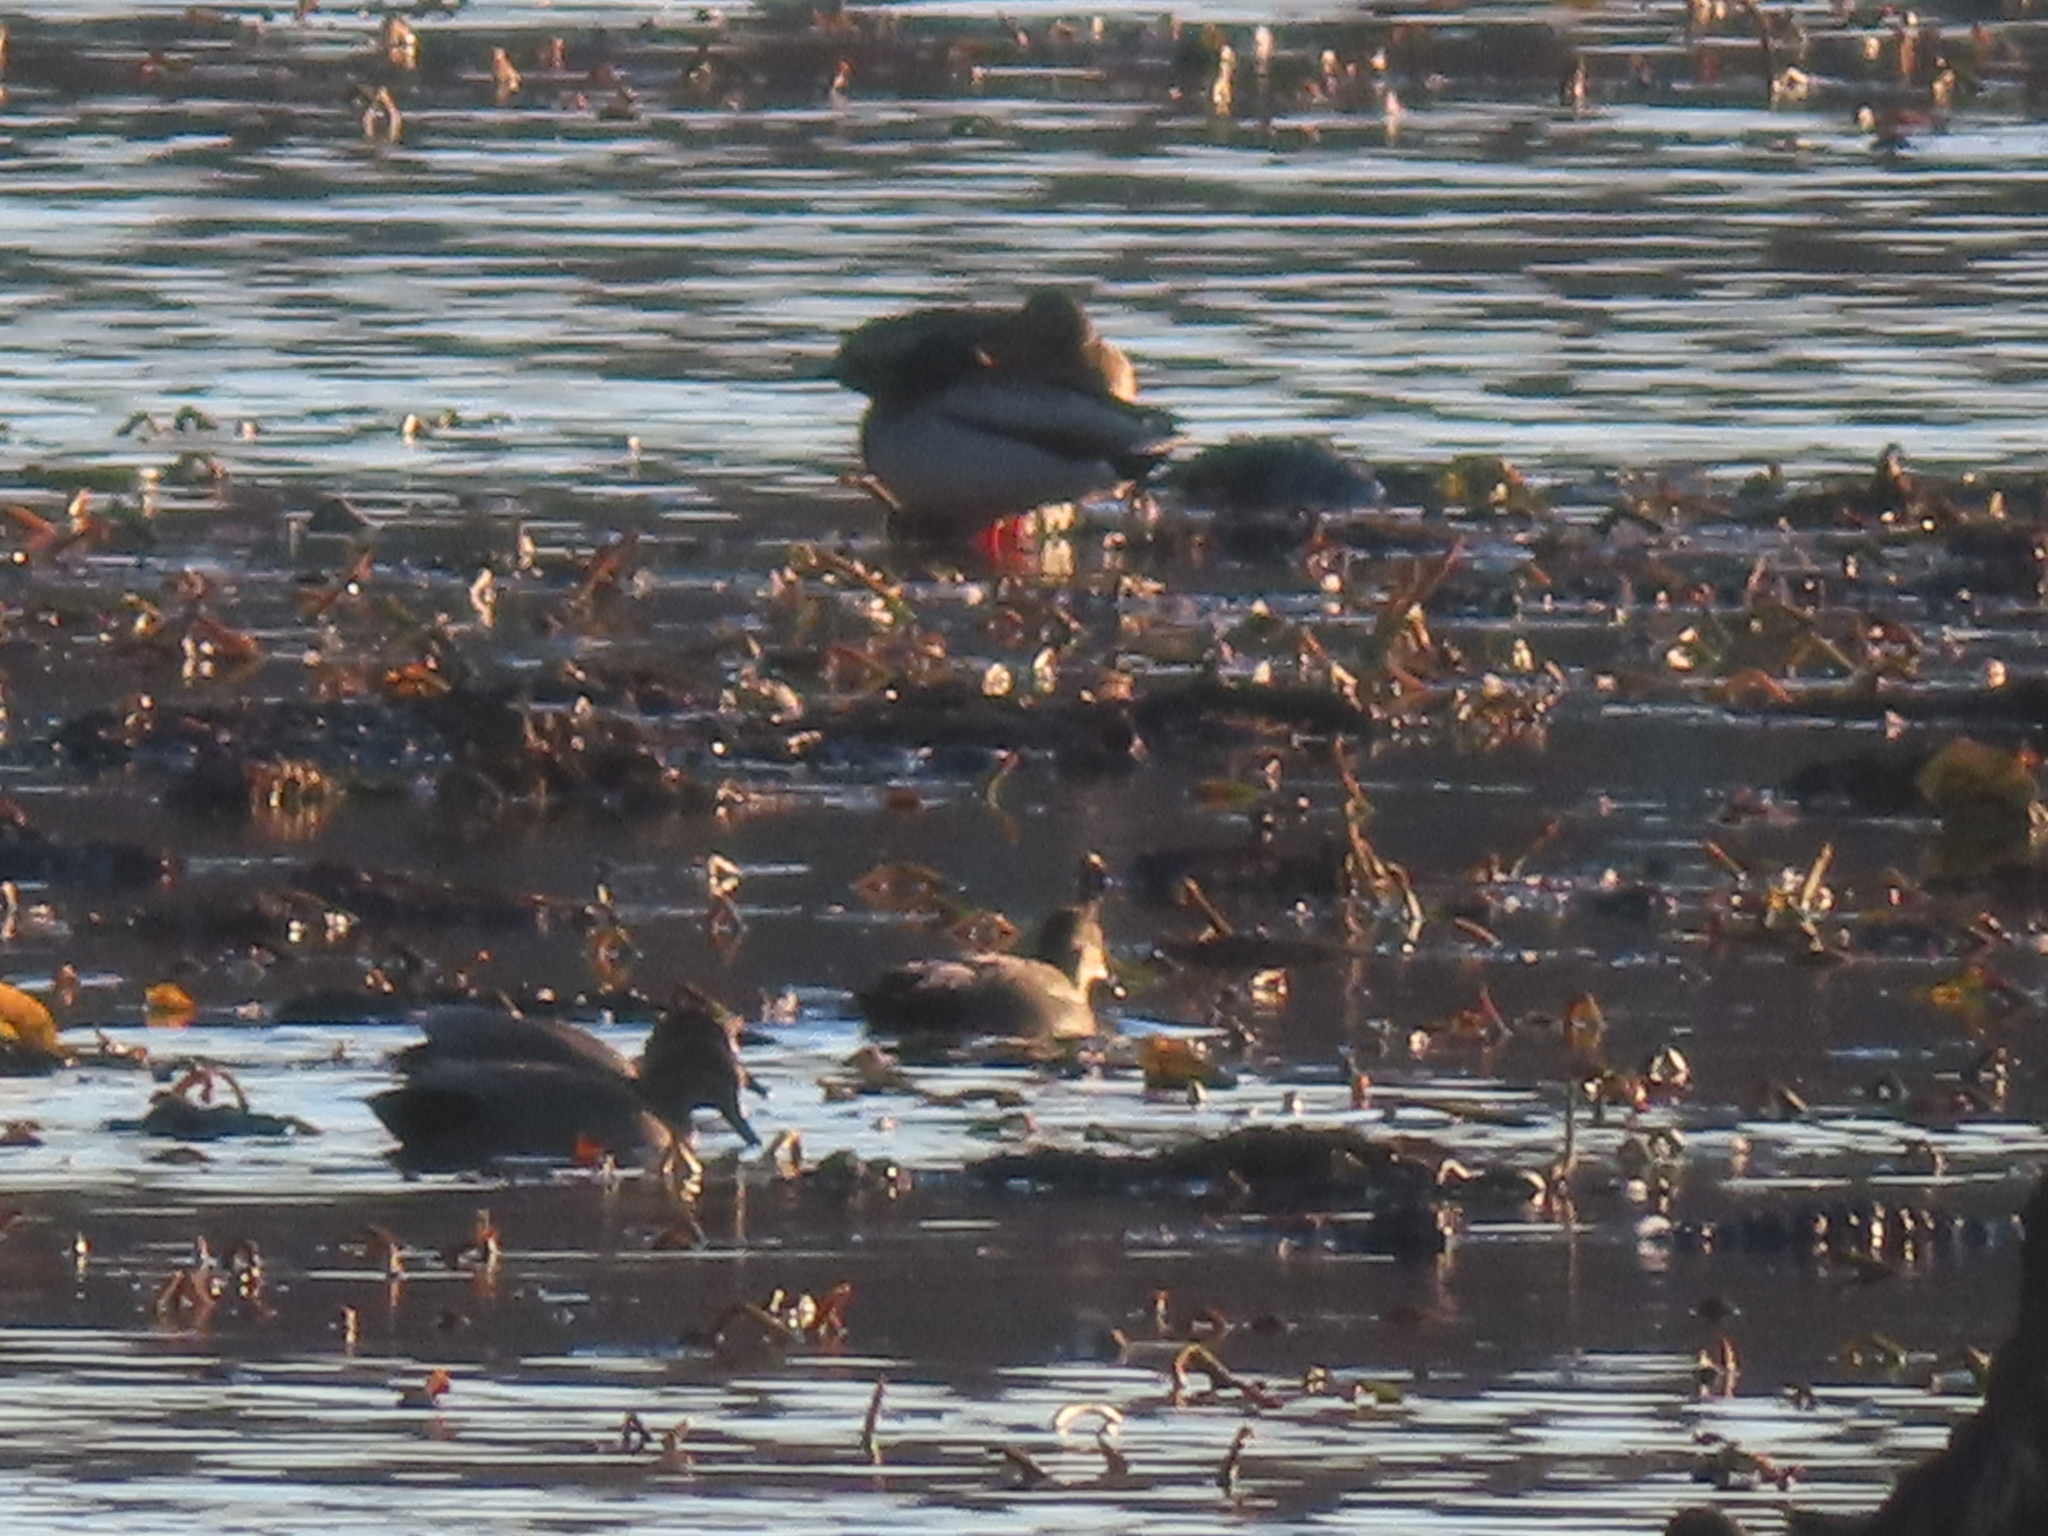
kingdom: Animalia
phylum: Chordata
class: Aves
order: Anseriformes
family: Anatidae
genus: Mareca
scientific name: Mareca strepera
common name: Gadwall
